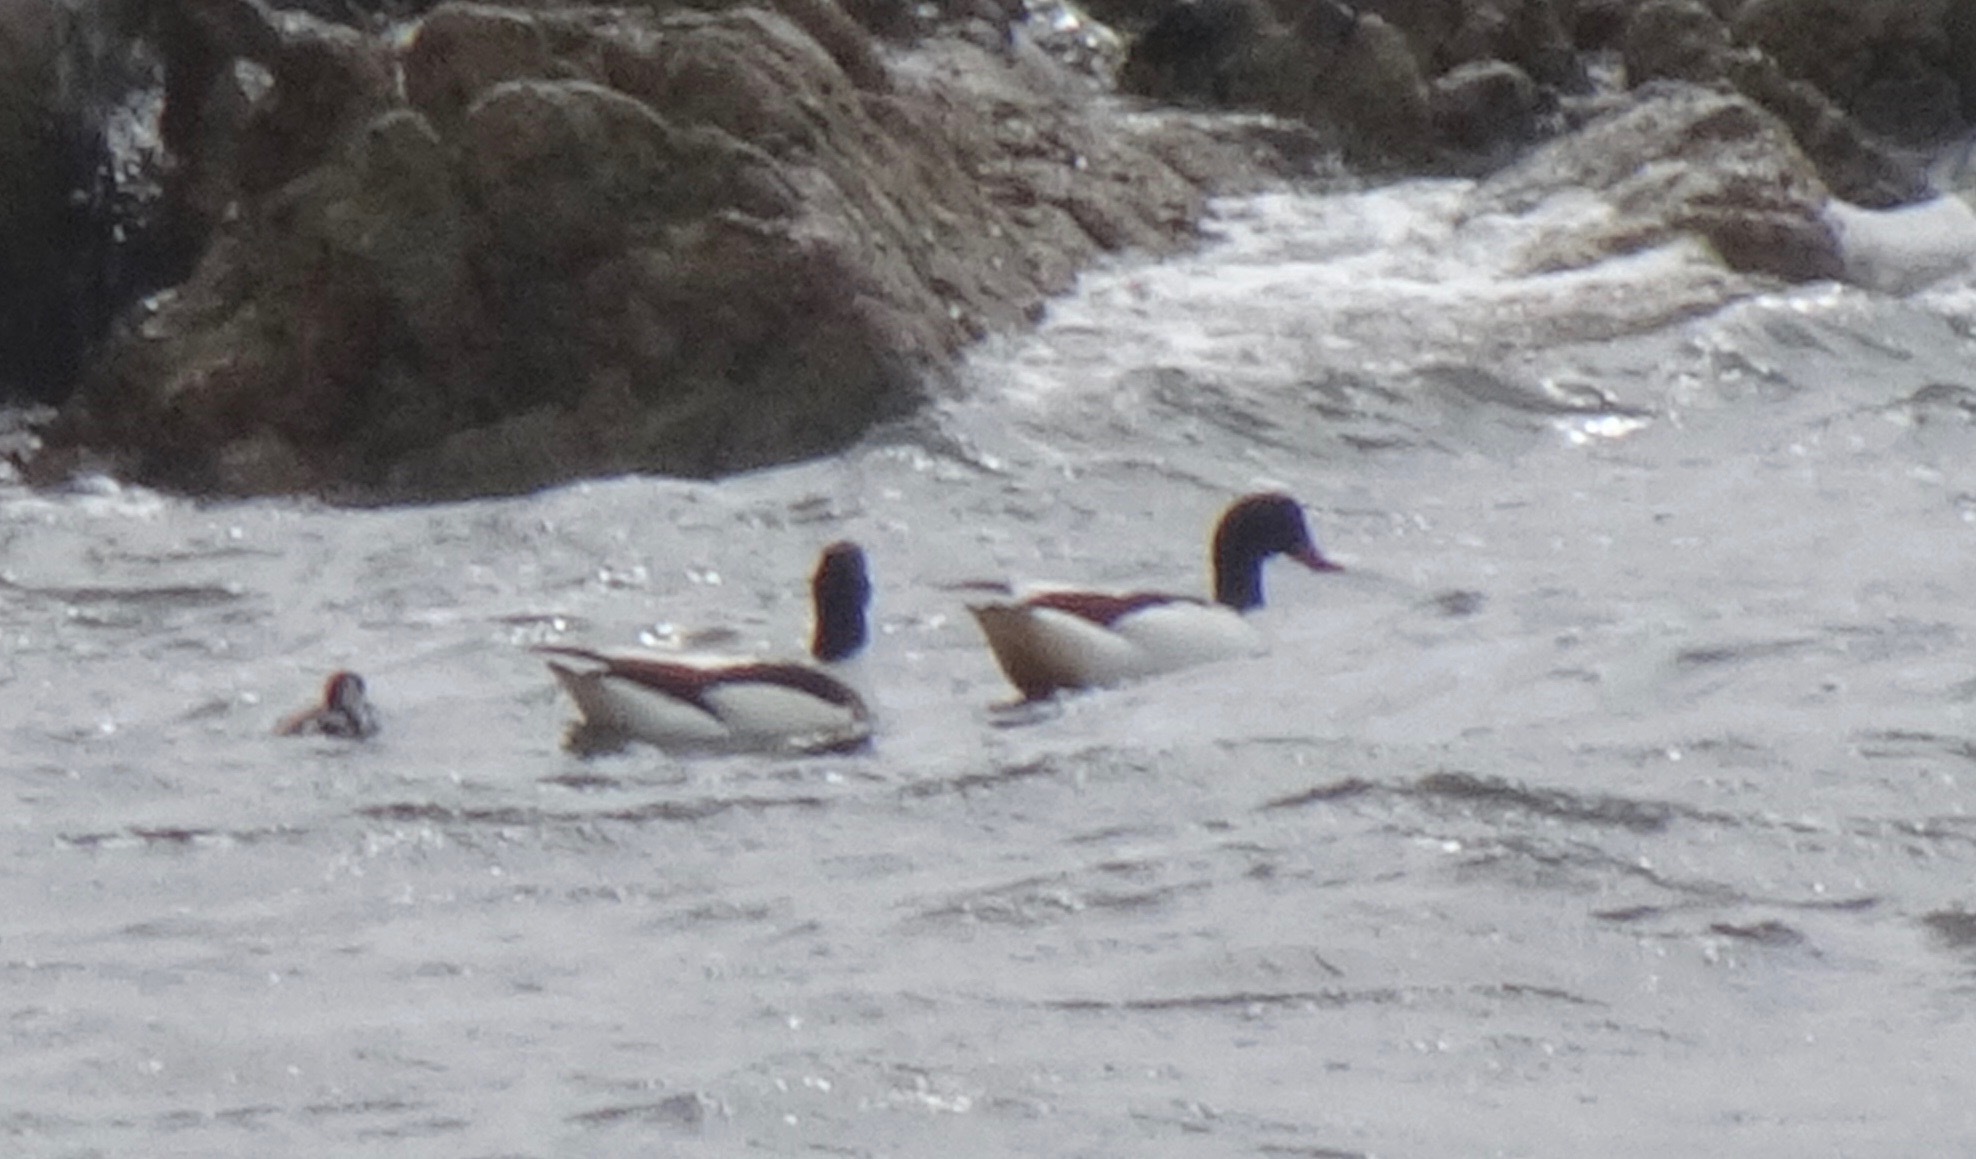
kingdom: Animalia
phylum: Chordata
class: Aves
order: Anseriformes
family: Anatidae
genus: Tadorna
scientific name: Tadorna tadorna
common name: Common shelduck
